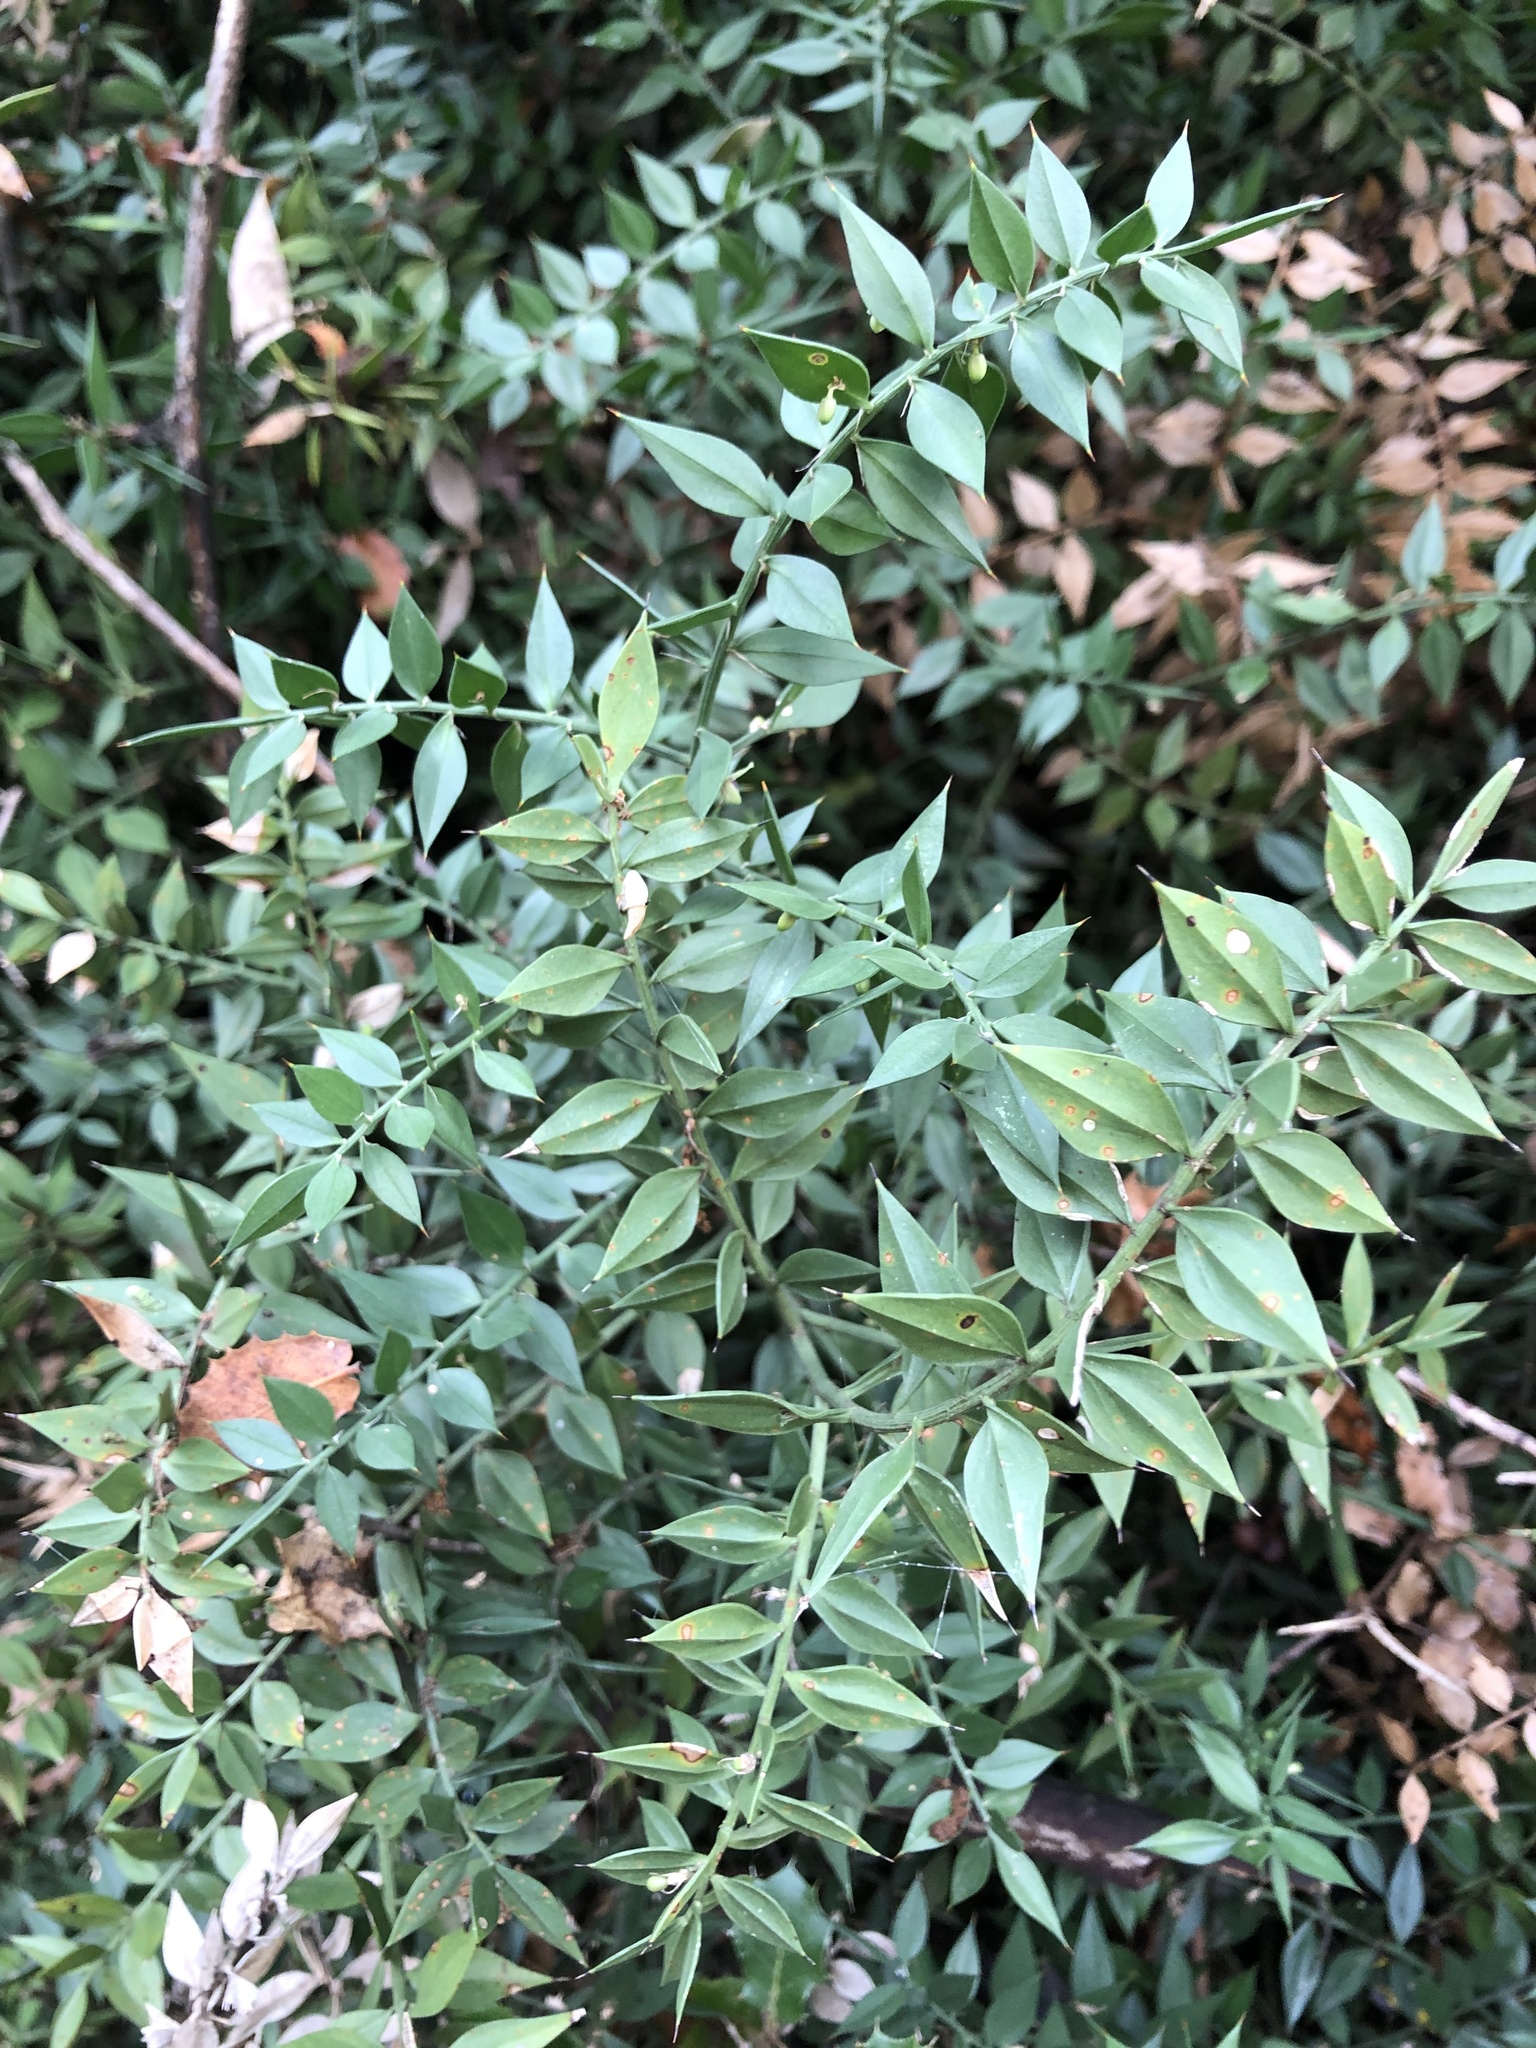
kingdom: Plantae
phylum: Tracheophyta
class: Liliopsida
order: Asparagales
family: Asparagaceae
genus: Ruscus
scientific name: Ruscus aculeatus
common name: Butcher's-broom
